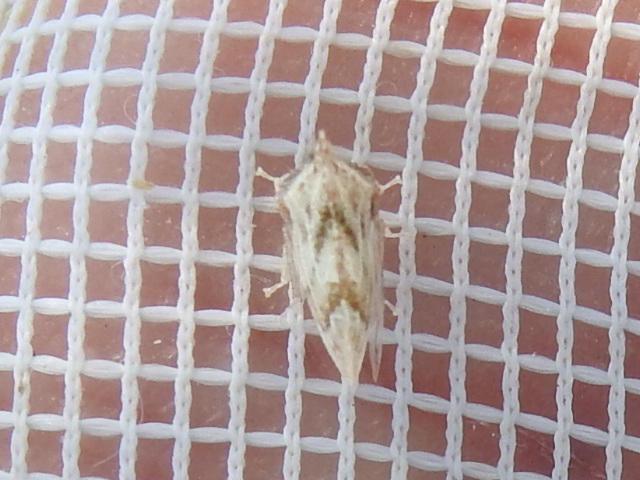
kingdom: Animalia
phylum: Arthropoda
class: Insecta
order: Hemiptera
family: Membracidae
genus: Entylia
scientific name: Entylia carinata
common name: Keeled treehopper
